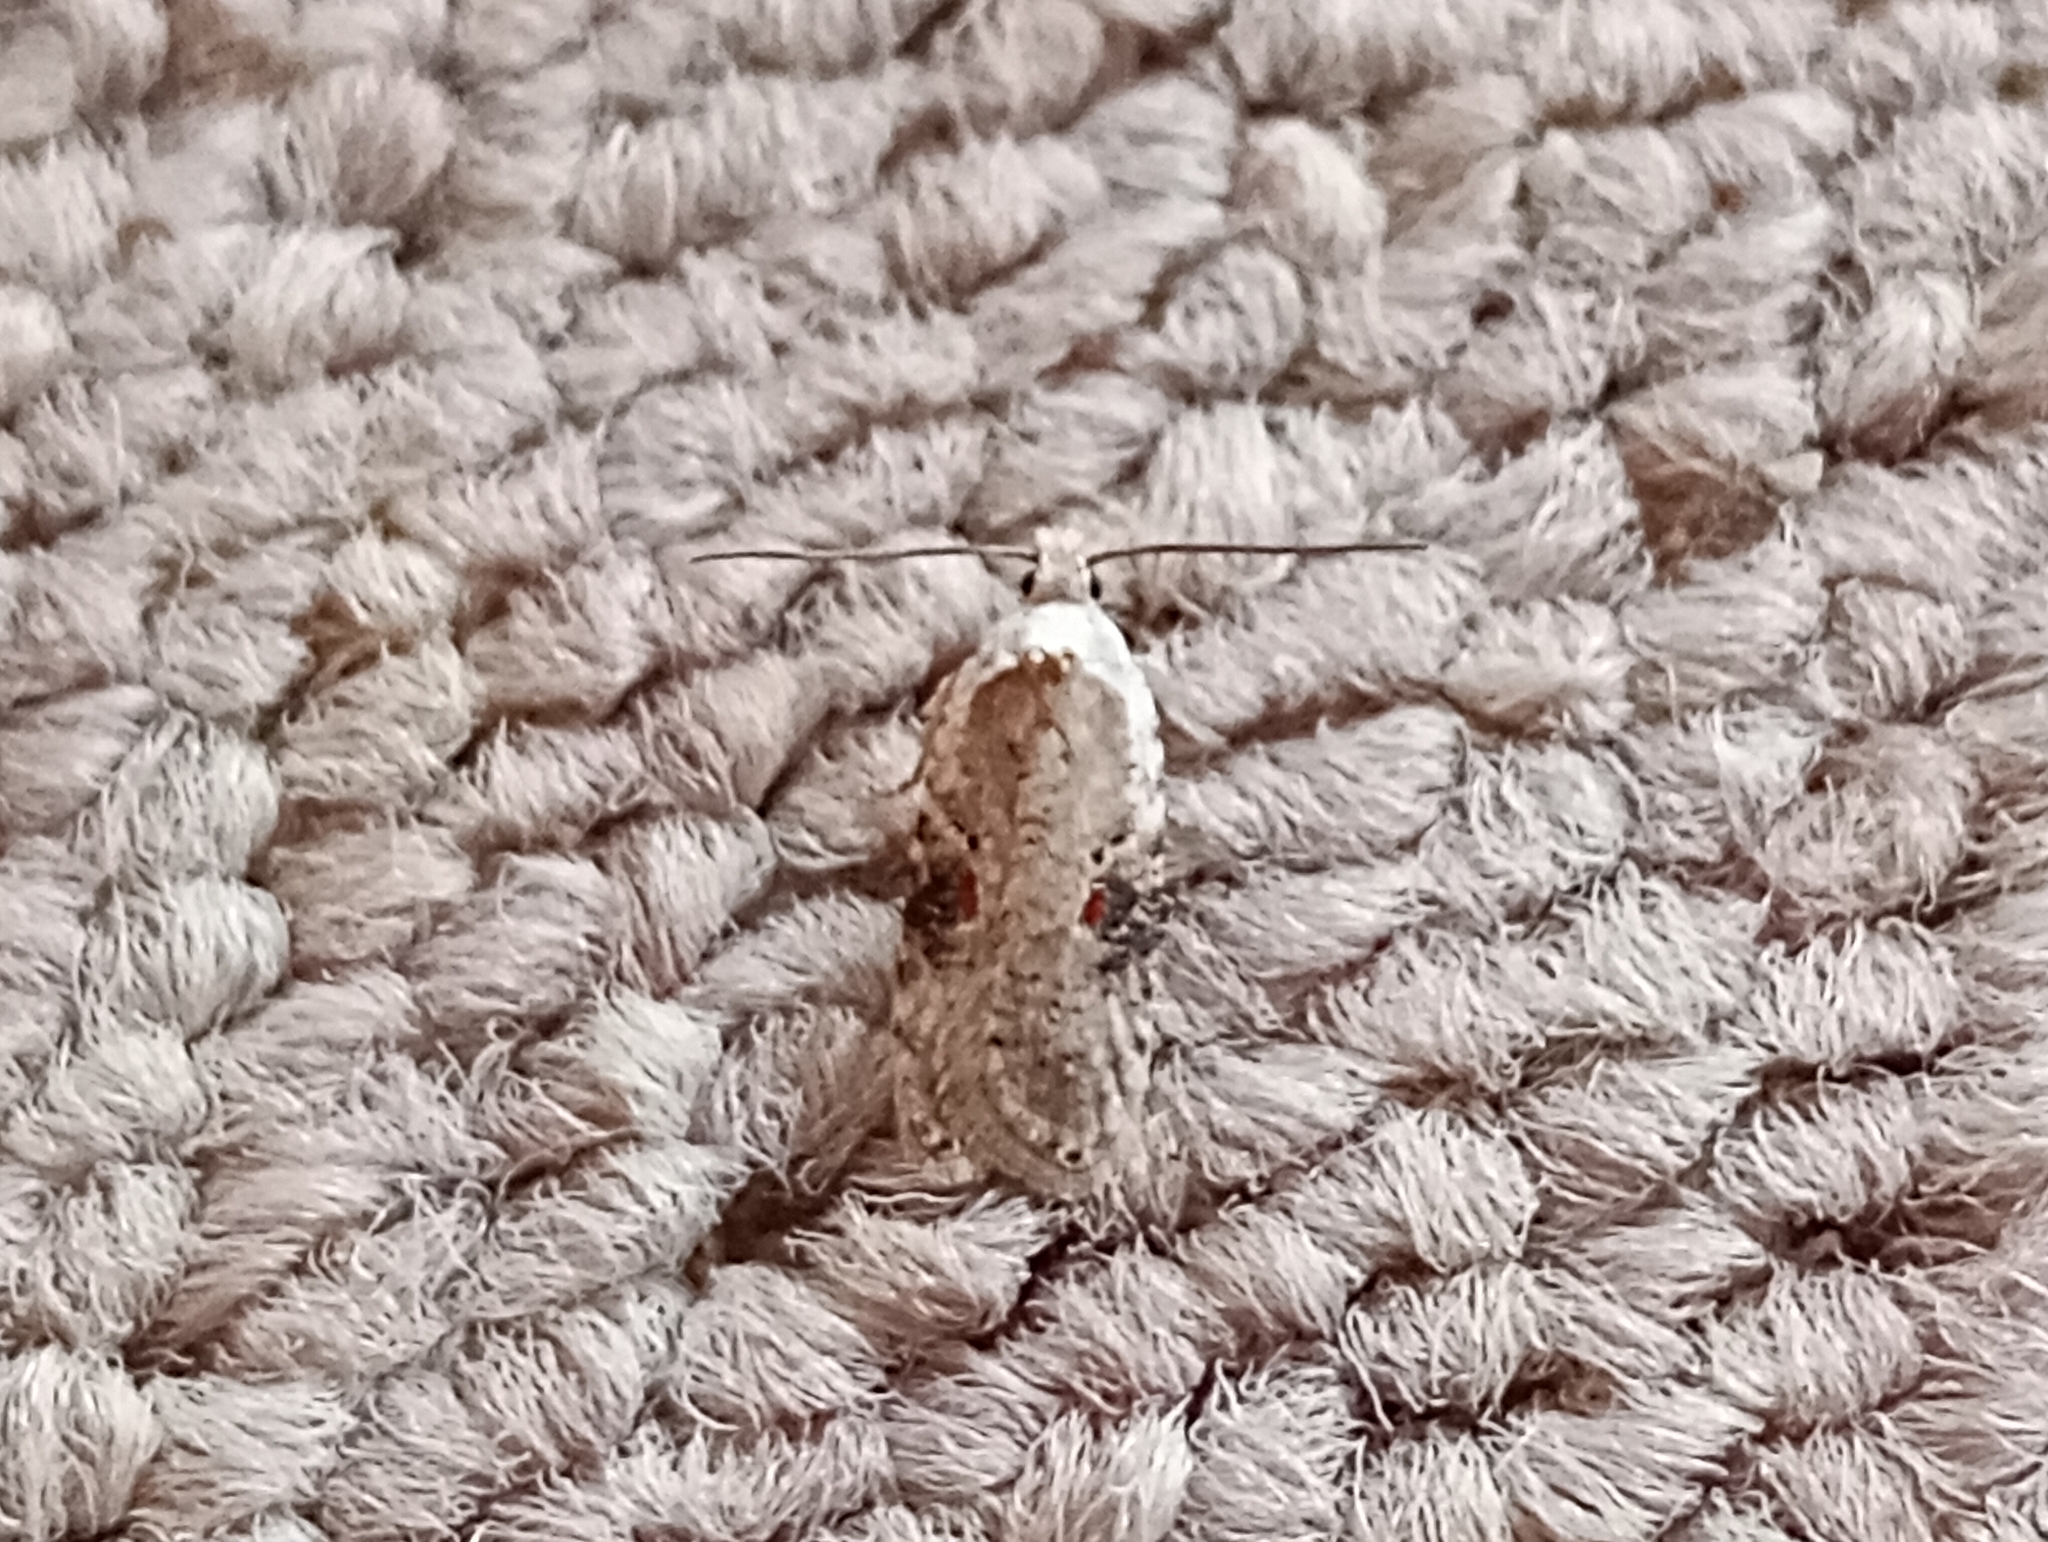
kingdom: Animalia
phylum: Arthropoda
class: Insecta
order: Lepidoptera
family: Depressariidae
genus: Agonopterix
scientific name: Agonopterix alstroemeriana
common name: Moth
